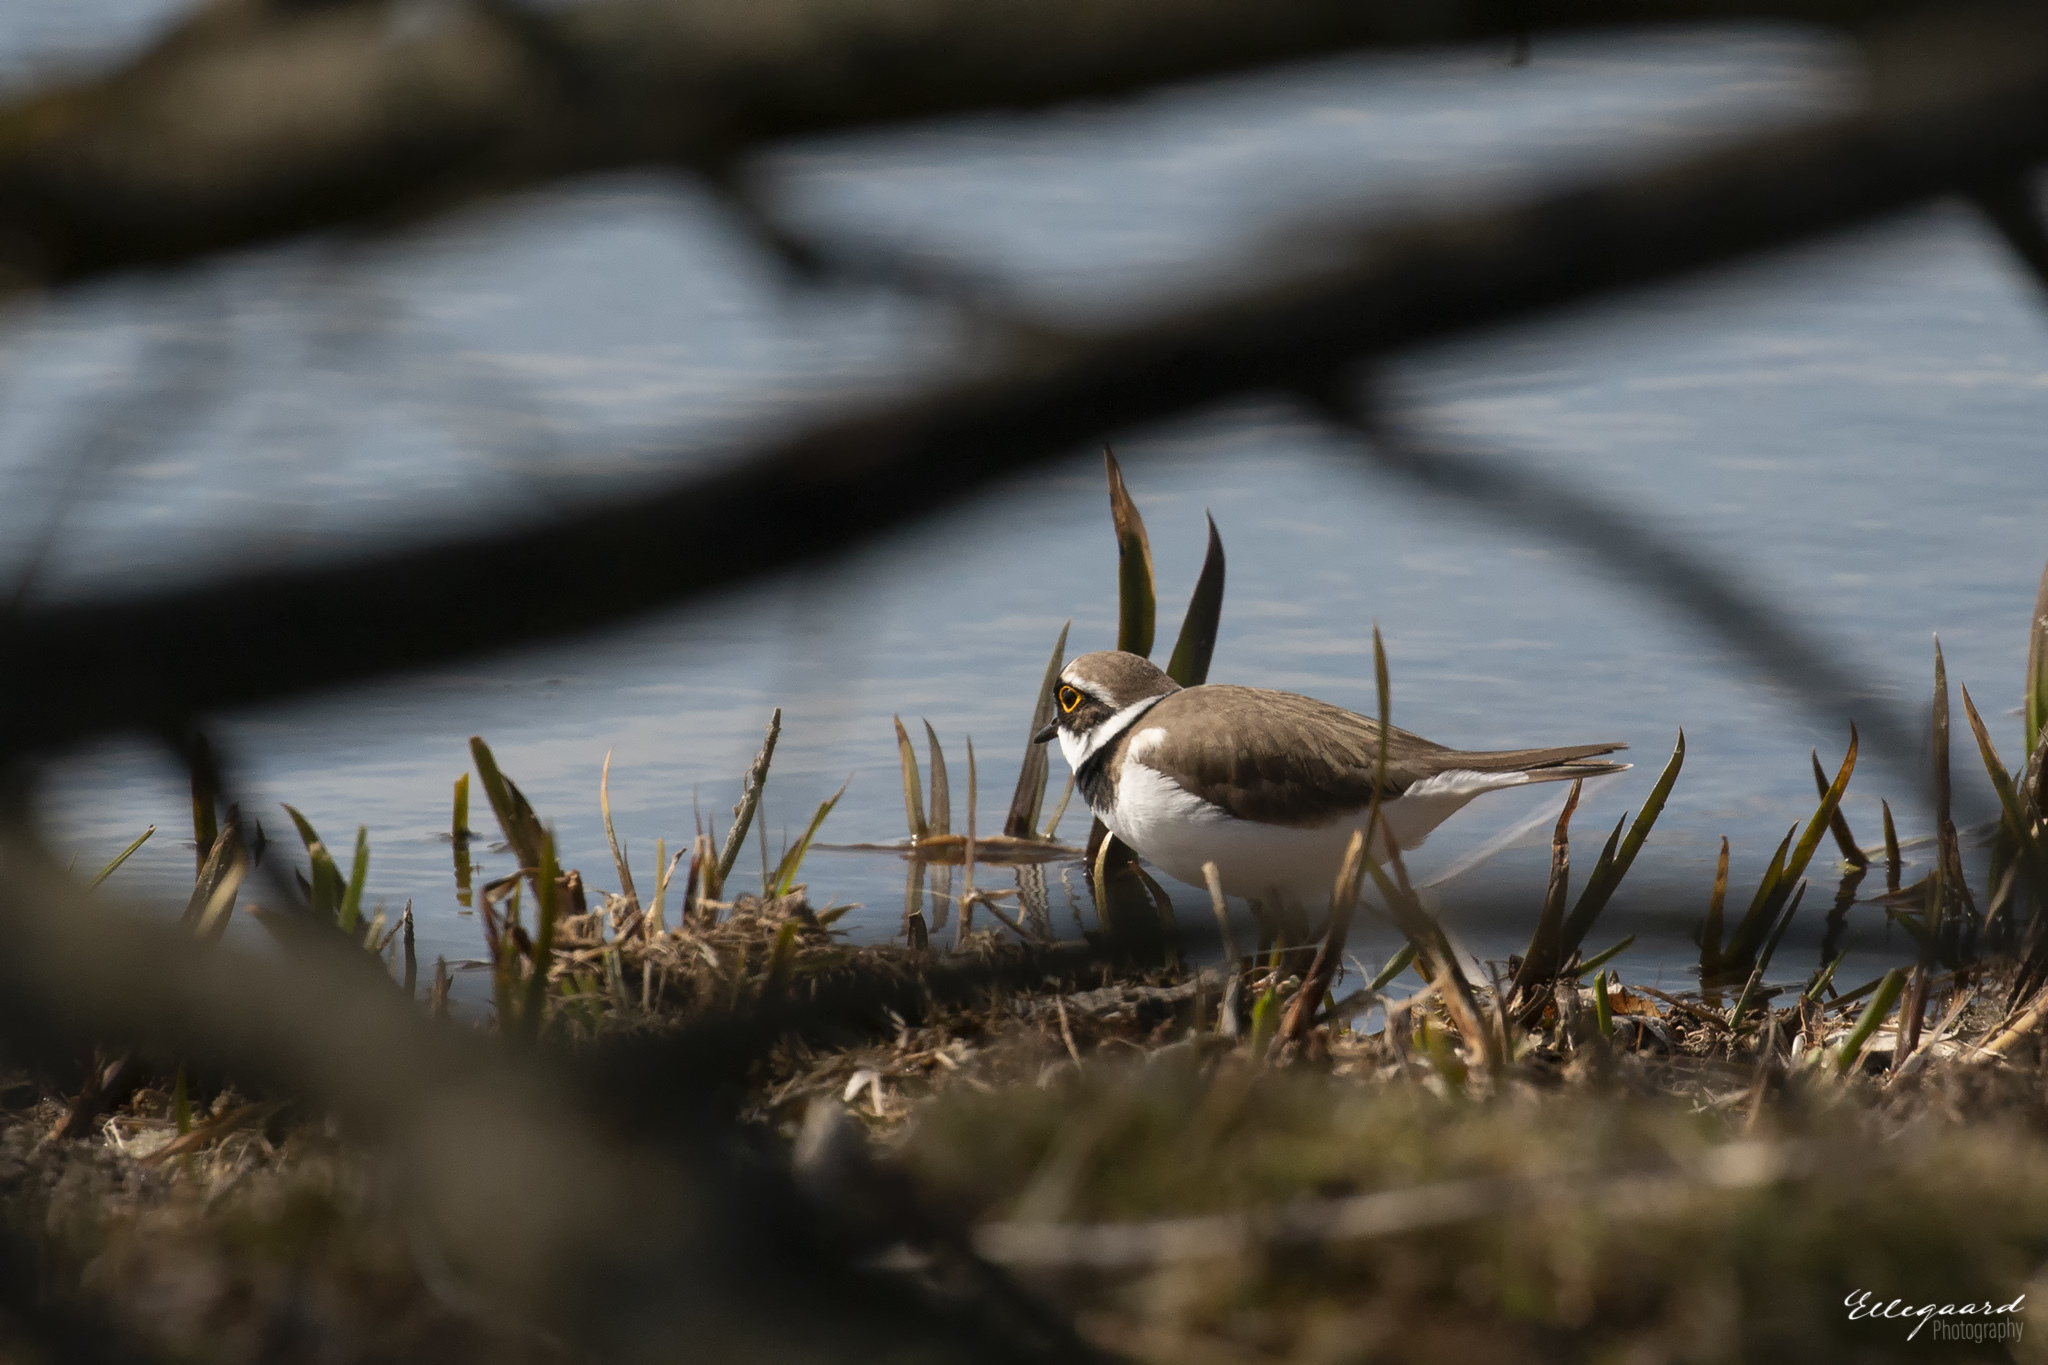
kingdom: Animalia
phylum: Chordata
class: Aves
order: Charadriiformes
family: Charadriidae
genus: Charadrius
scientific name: Charadrius dubius
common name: Little ringed plover
